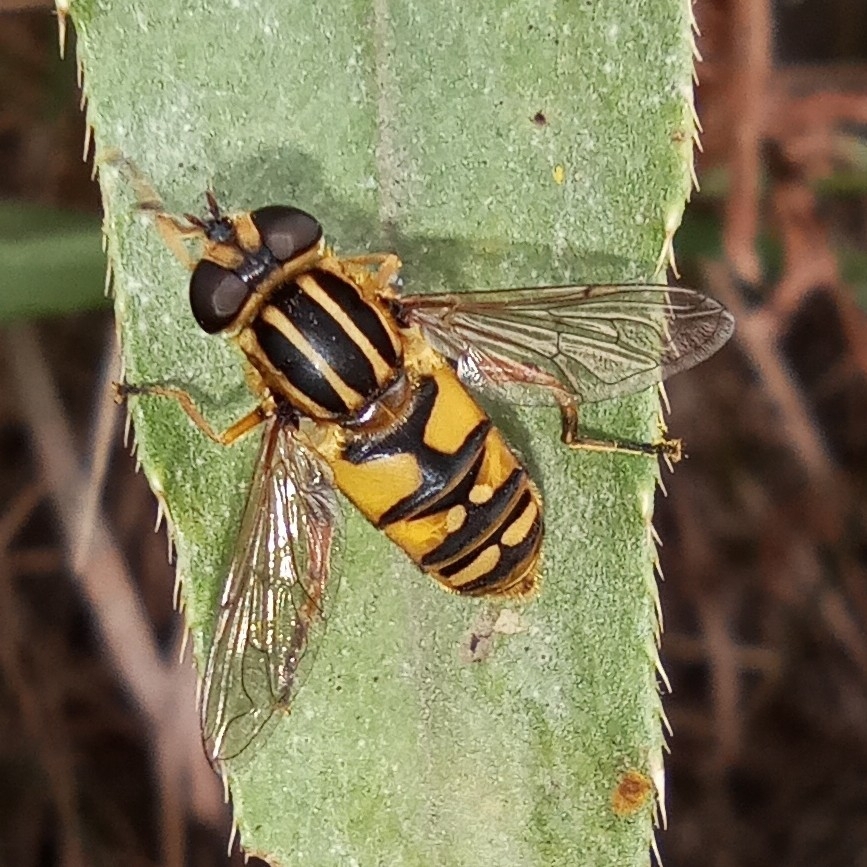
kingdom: Animalia
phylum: Arthropoda
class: Insecta
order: Diptera
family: Syrphidae
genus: Helophilus
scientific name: Helophilus pendulus
